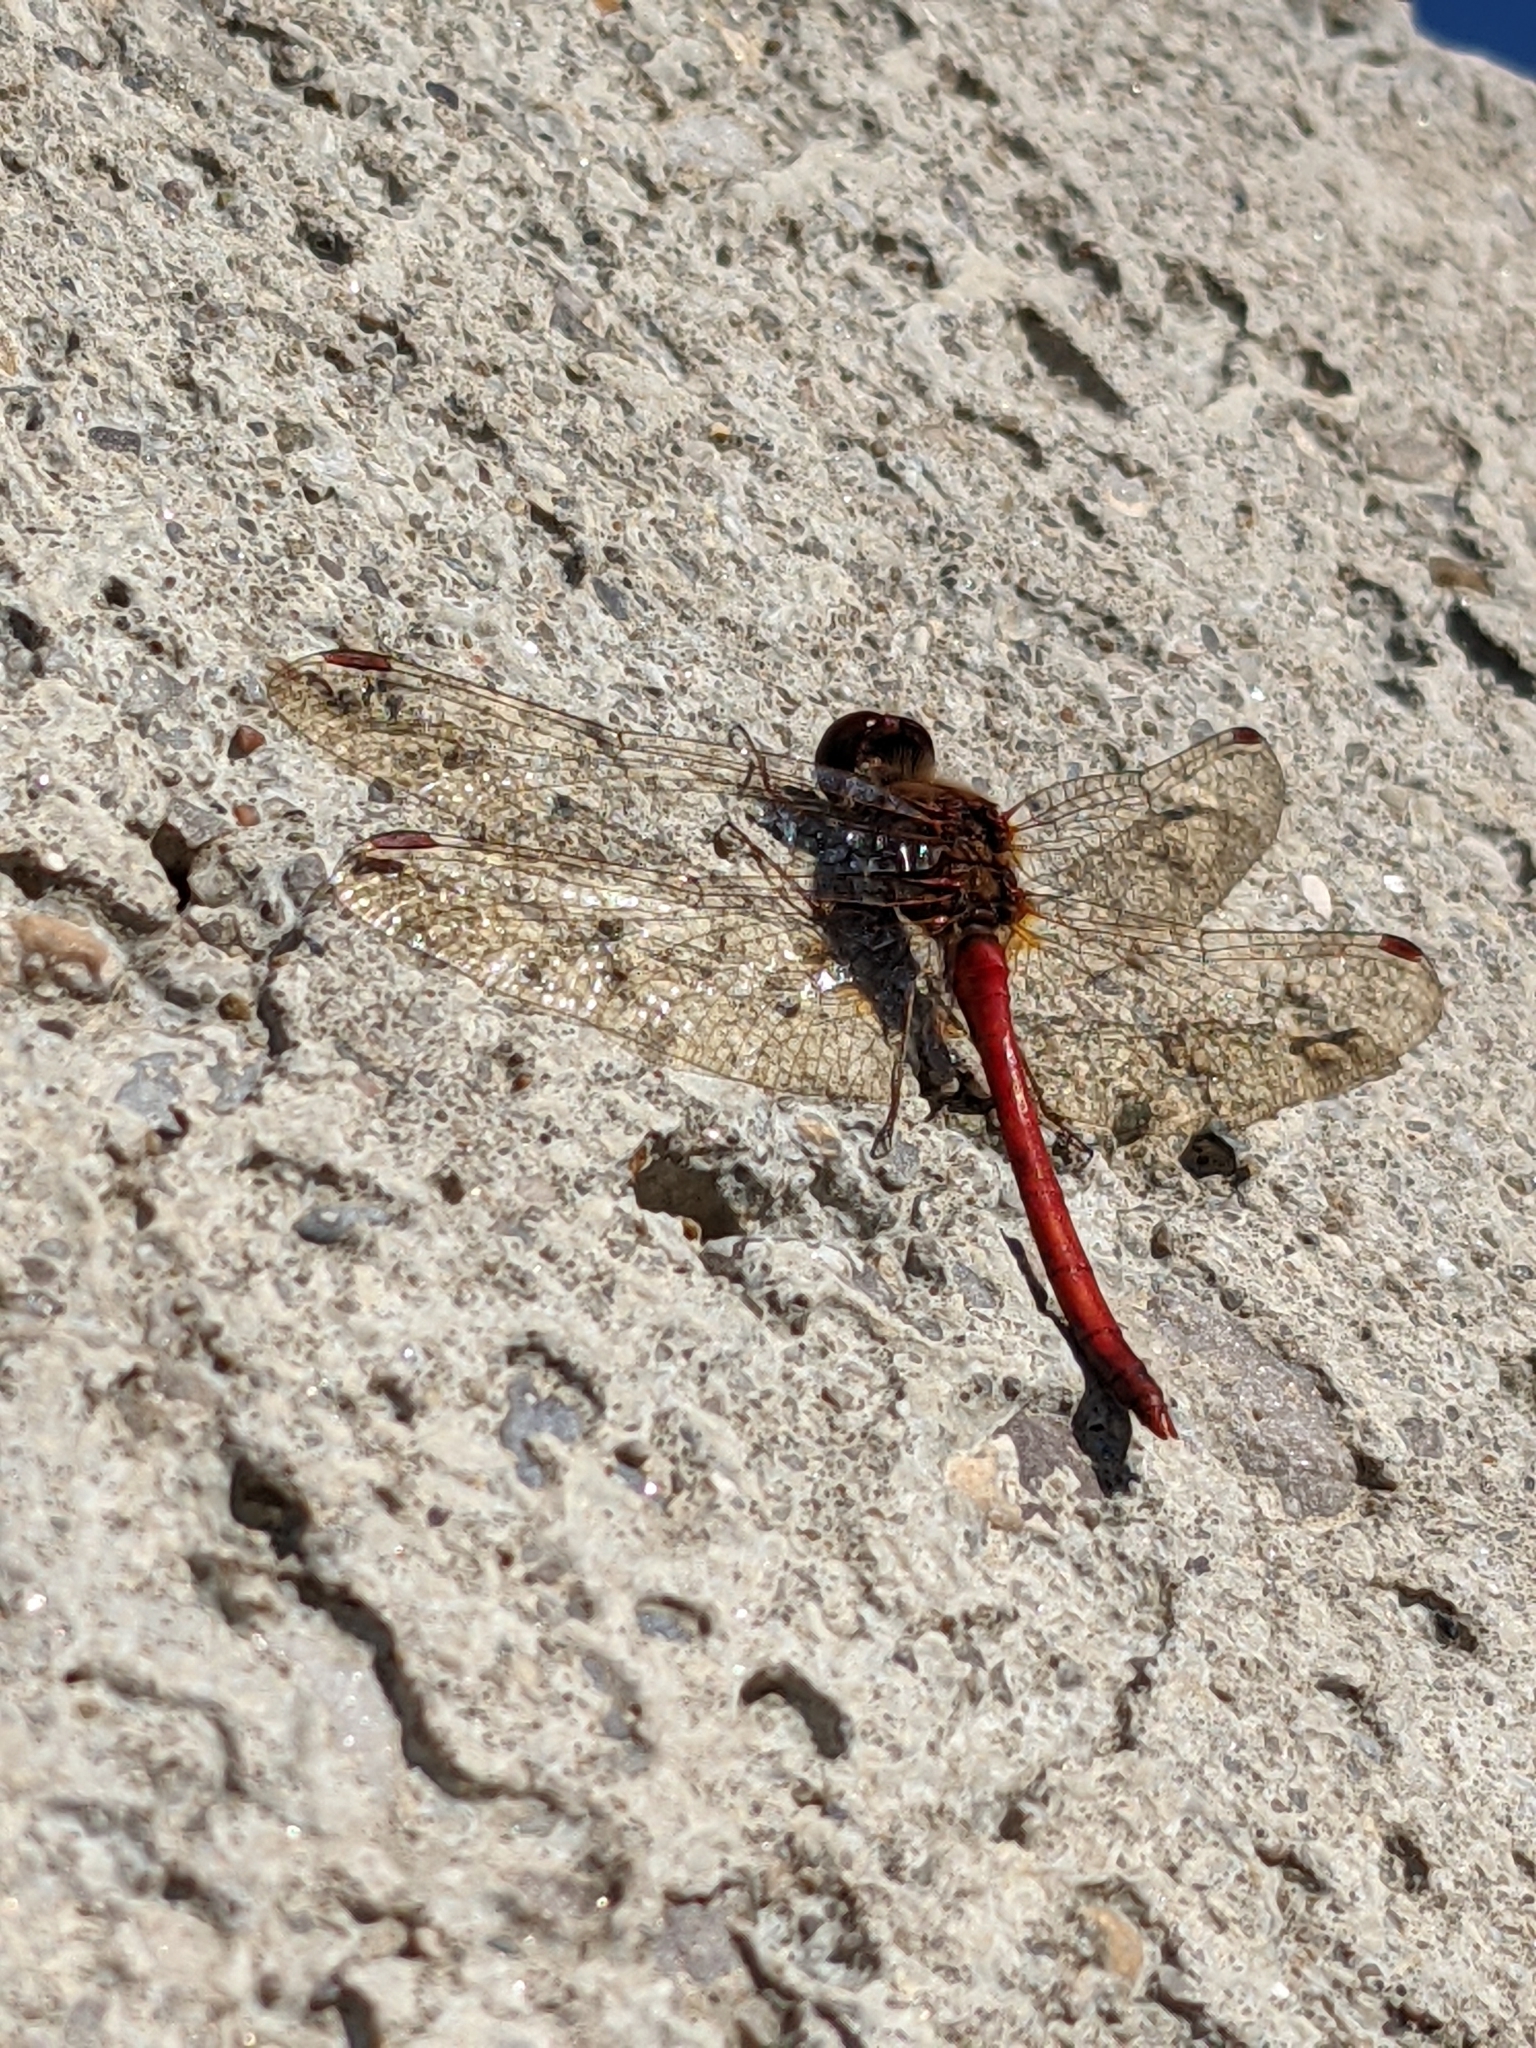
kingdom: Animalia
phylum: Arthropoda
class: Insecta
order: Odonata
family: Libellulidae
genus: Sympetrum
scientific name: Sympetrum vicinum
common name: Autumn meadowhawk
